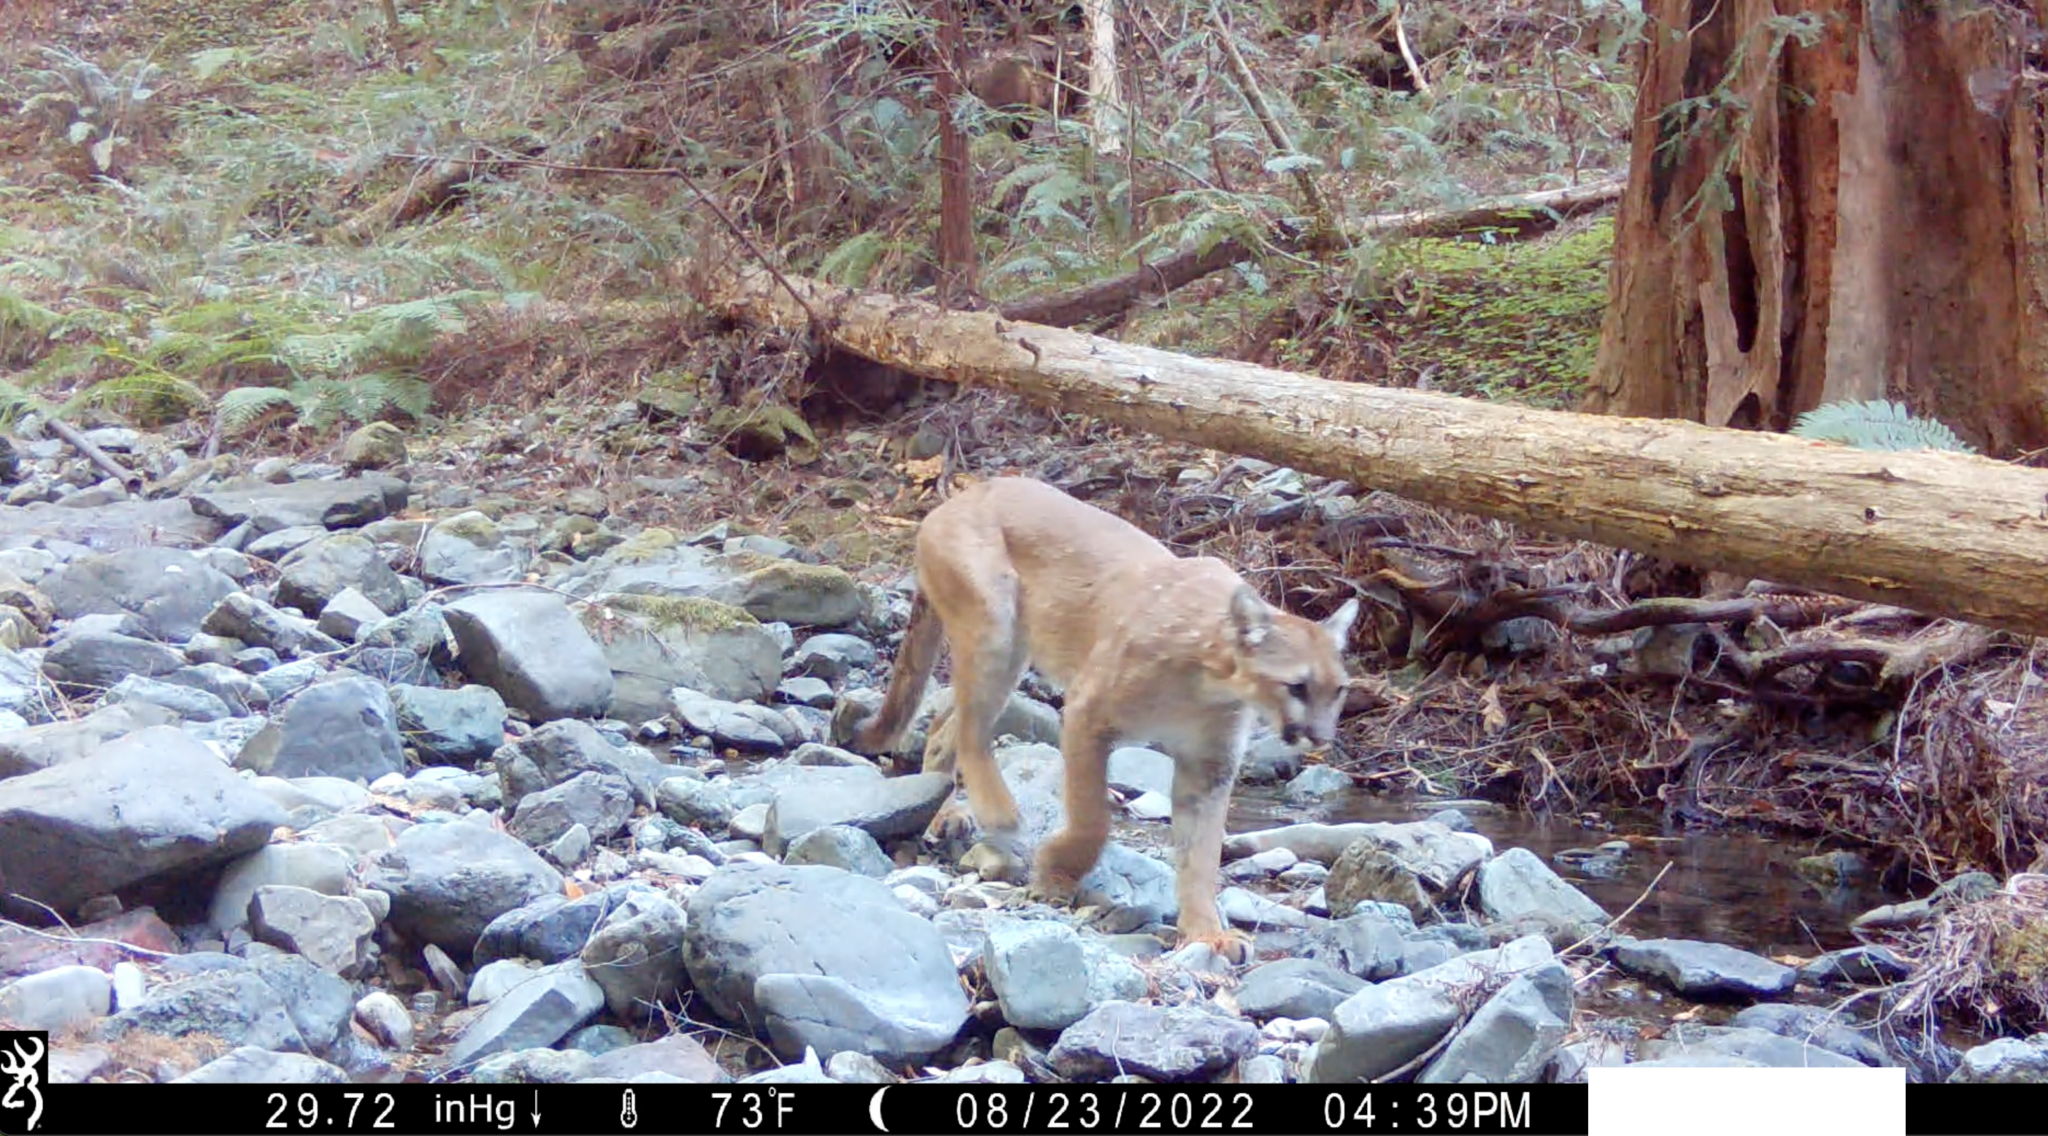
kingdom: Animalia
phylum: Chordata
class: Mammalia
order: Carnivora
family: Felidae
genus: Puma
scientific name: Puma concolor
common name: Puma
